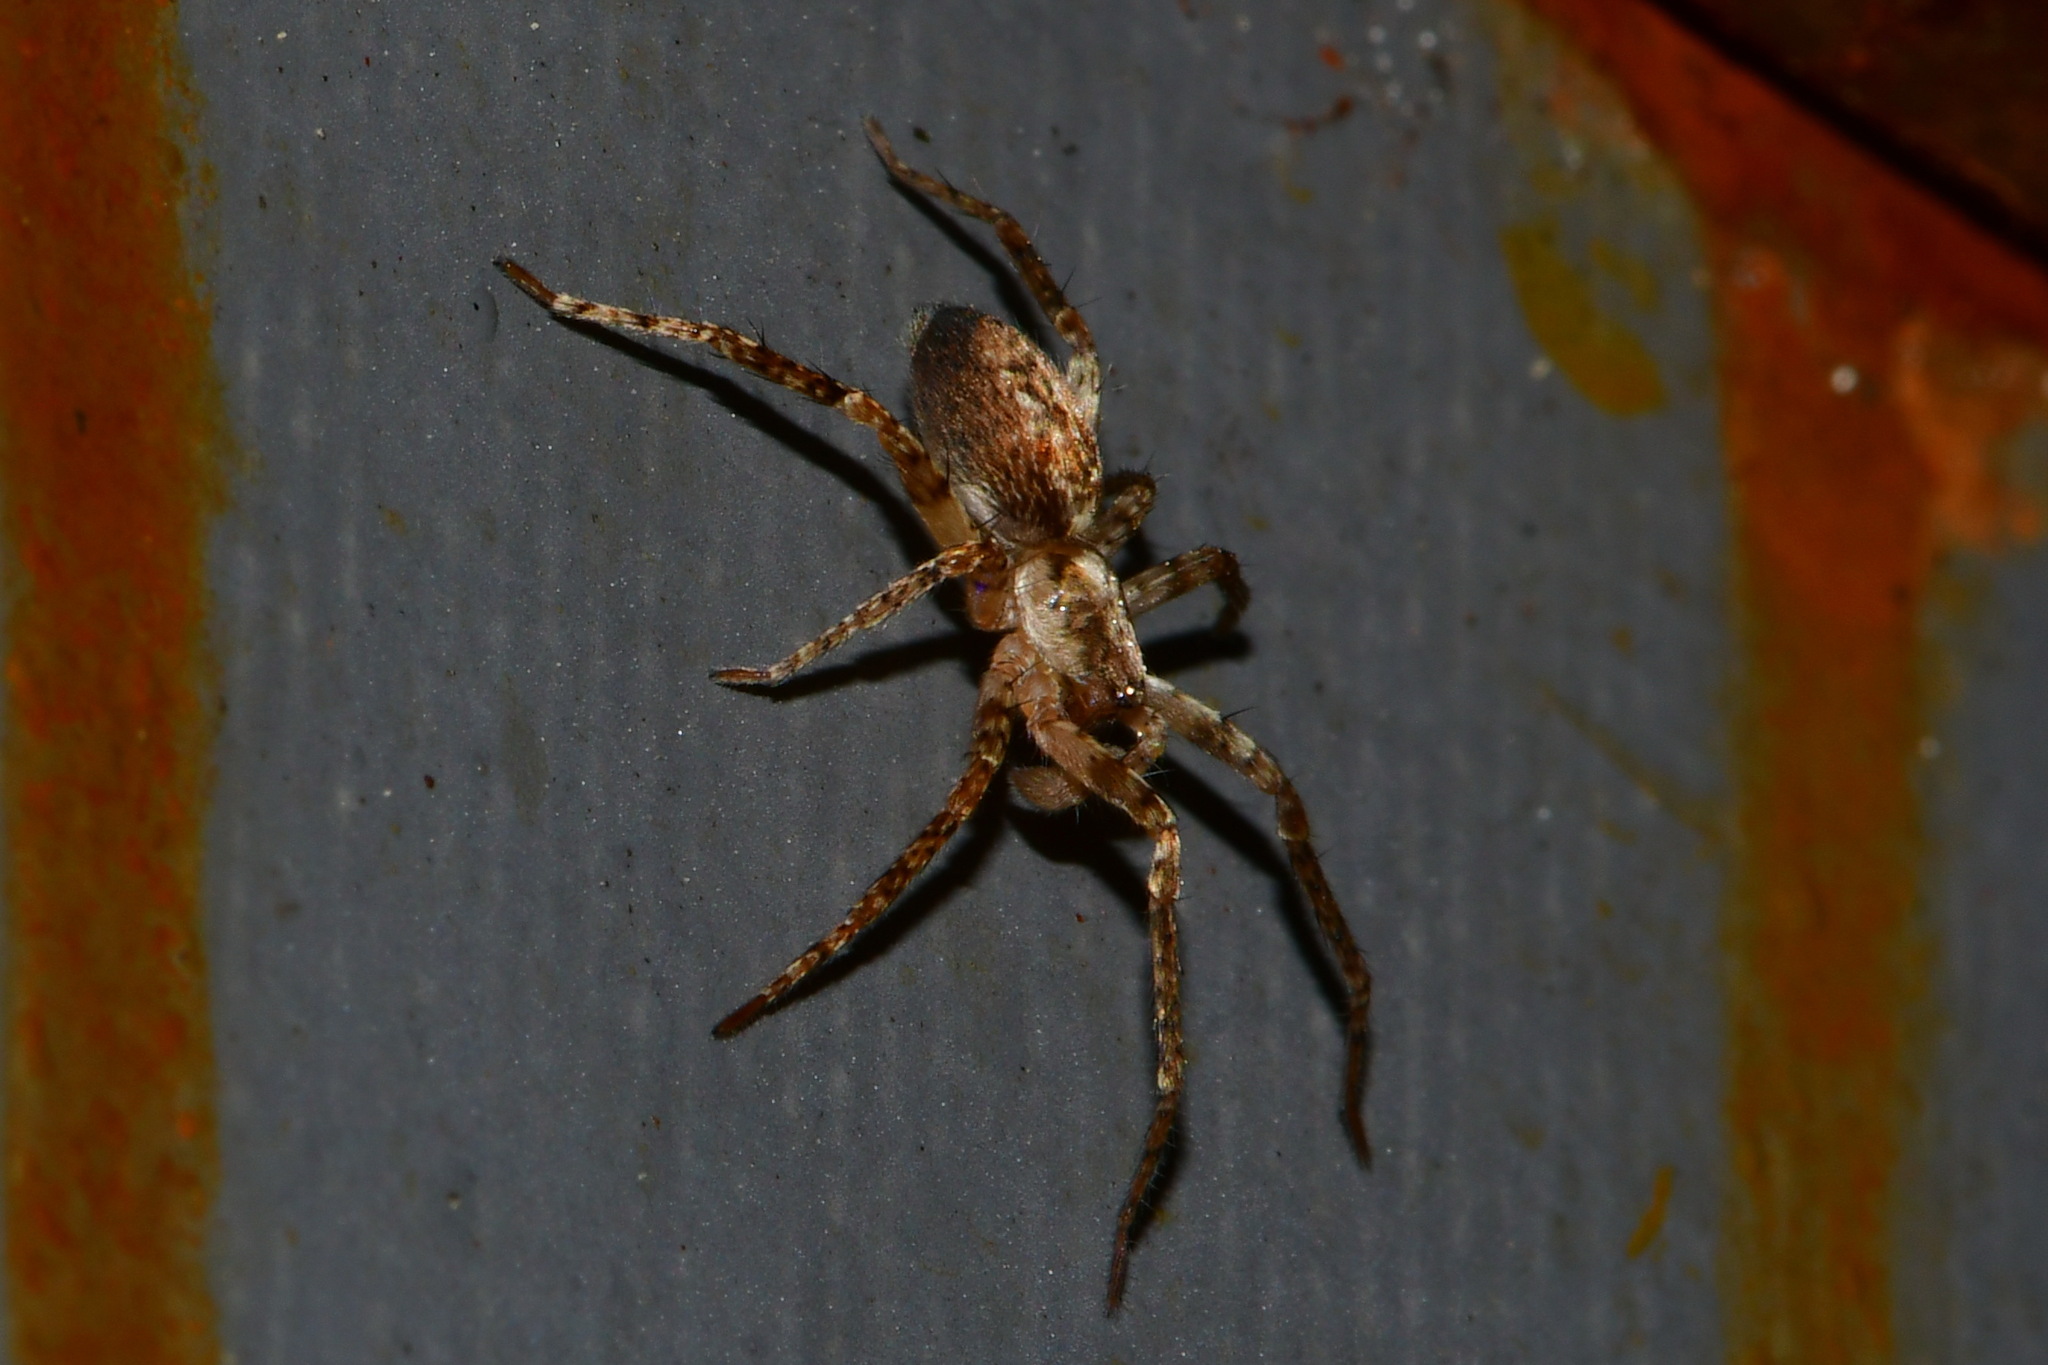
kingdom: Animalia
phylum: Arthropoda
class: Arachnida
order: Araneae
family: Anyphaenidae
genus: Anyphaena
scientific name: Anyphaena accentuata
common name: Buzzing spider
